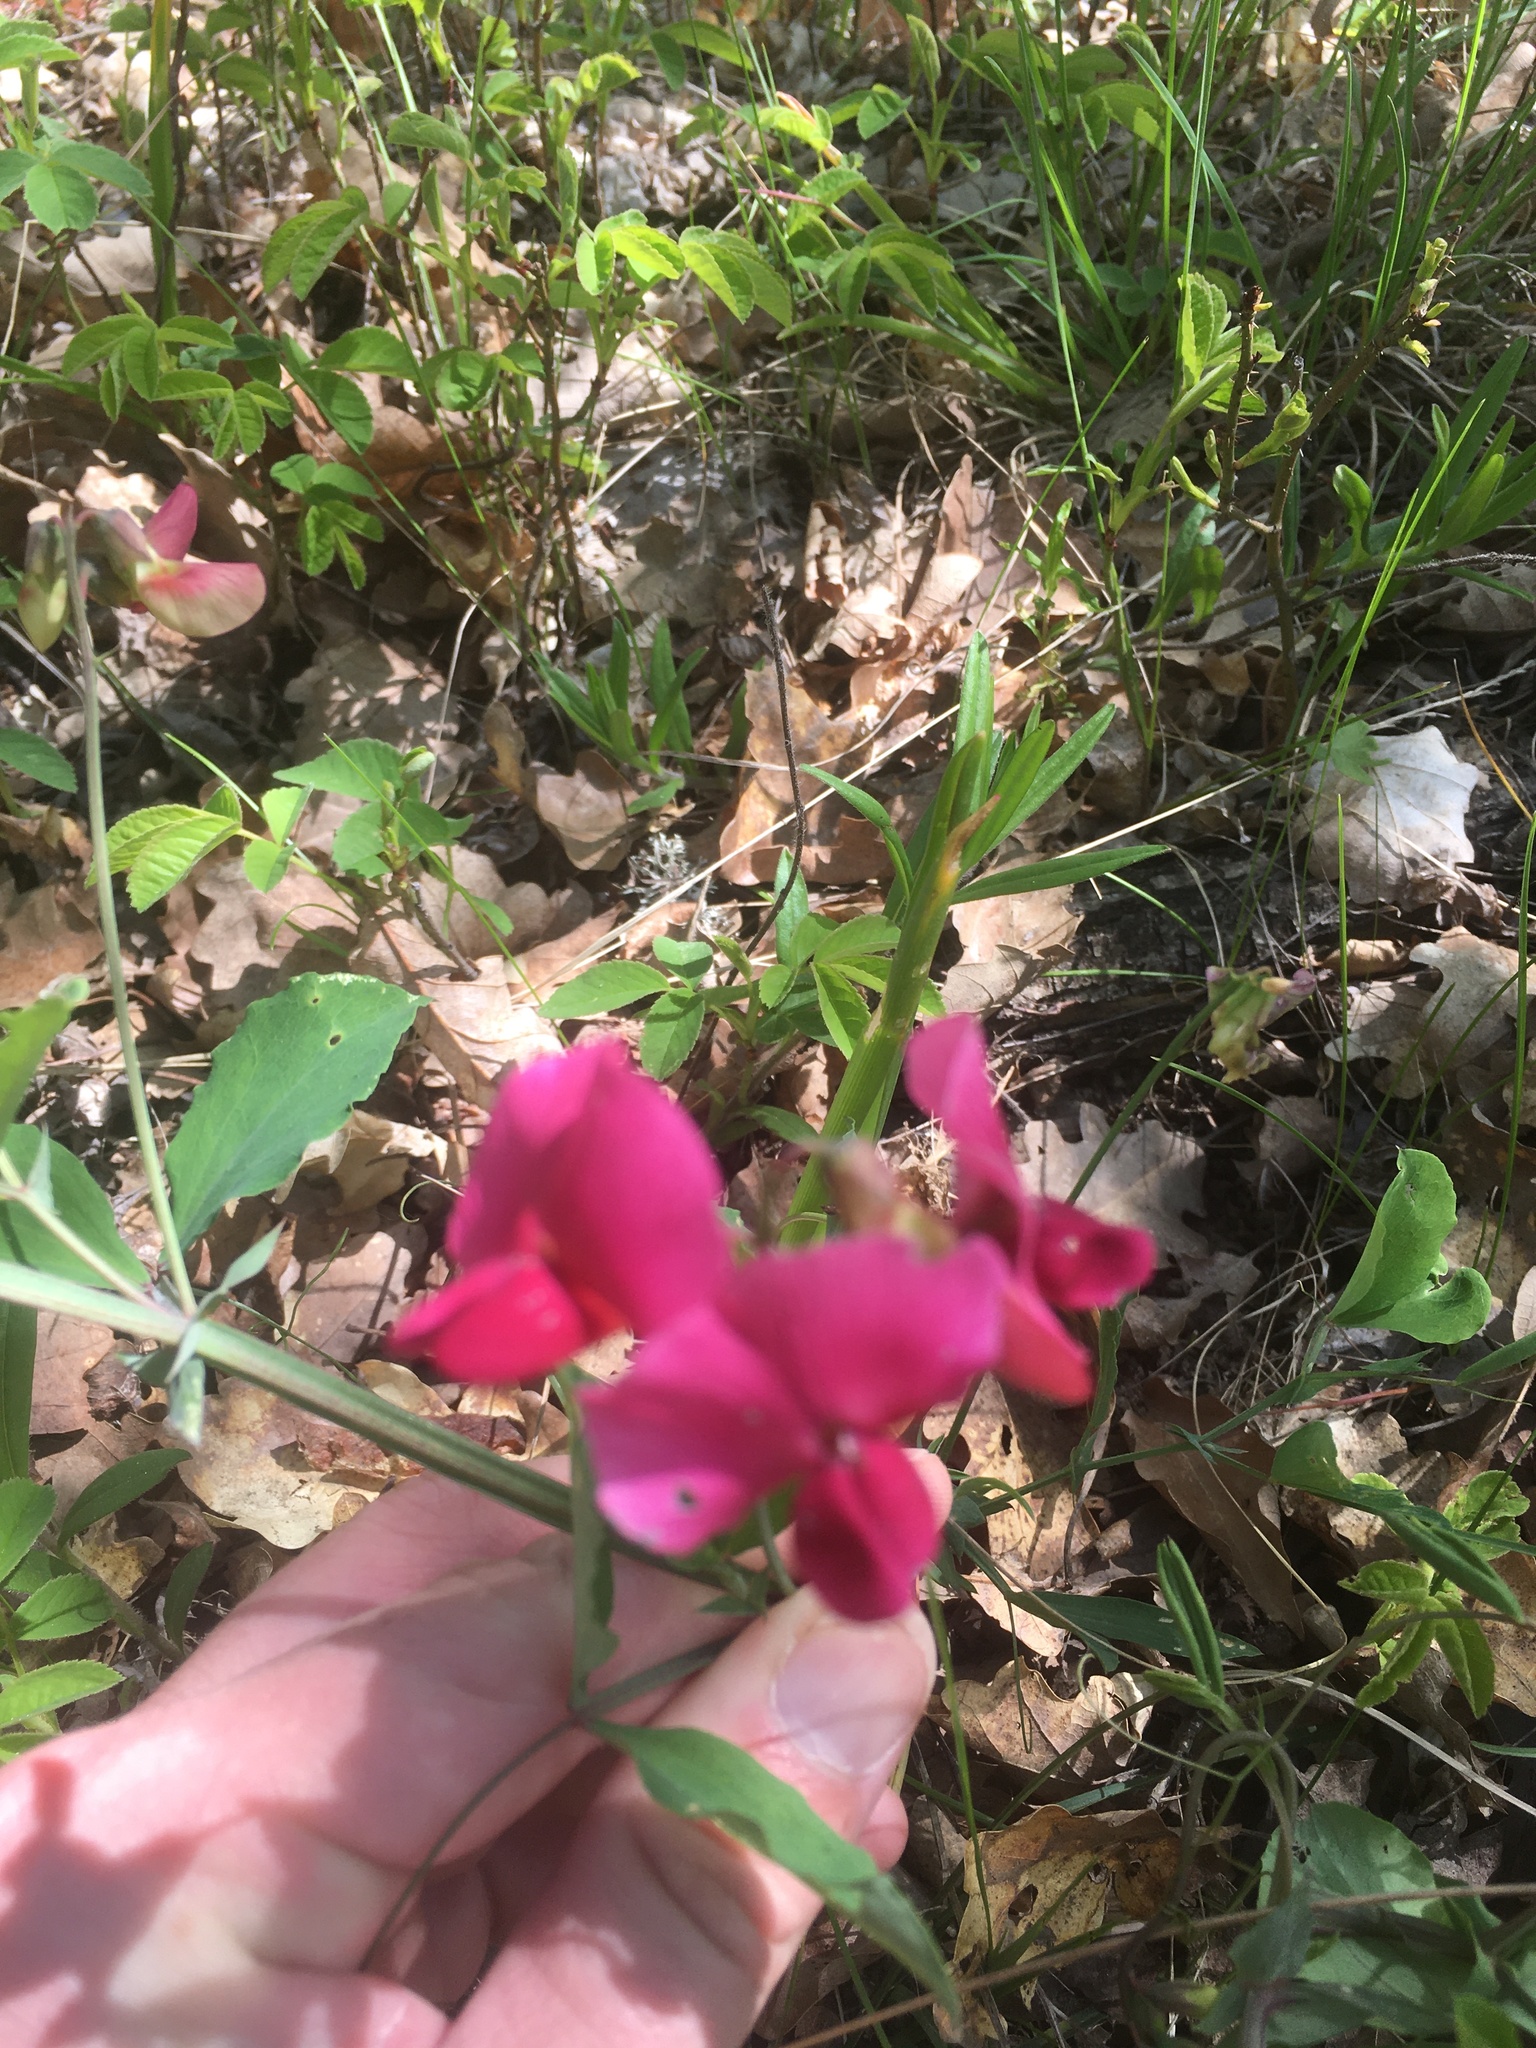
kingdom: Plantae
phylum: Tracheophyta
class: Magnoliopsida
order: Fabales
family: Fabaceae
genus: Lathyrus
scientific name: Lathyrus rotundifolius
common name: Round-leaf vetchling
